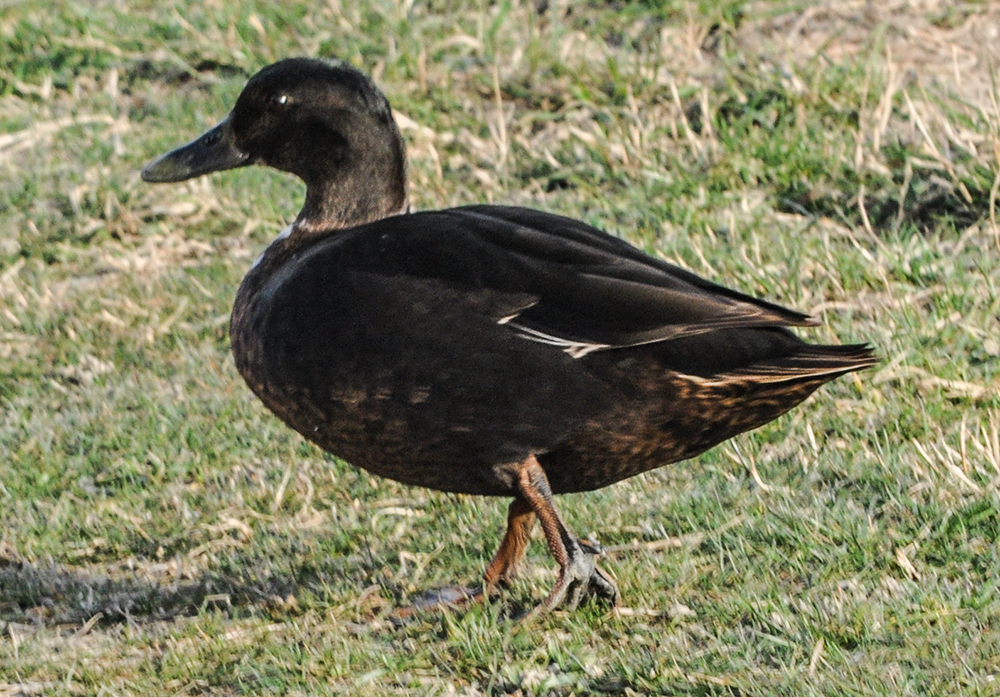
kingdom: Animalia
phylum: Chordata
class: Aves
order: Anseriformes
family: Anatidae
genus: Anas
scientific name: Anas platyrhynchos
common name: Mallard
